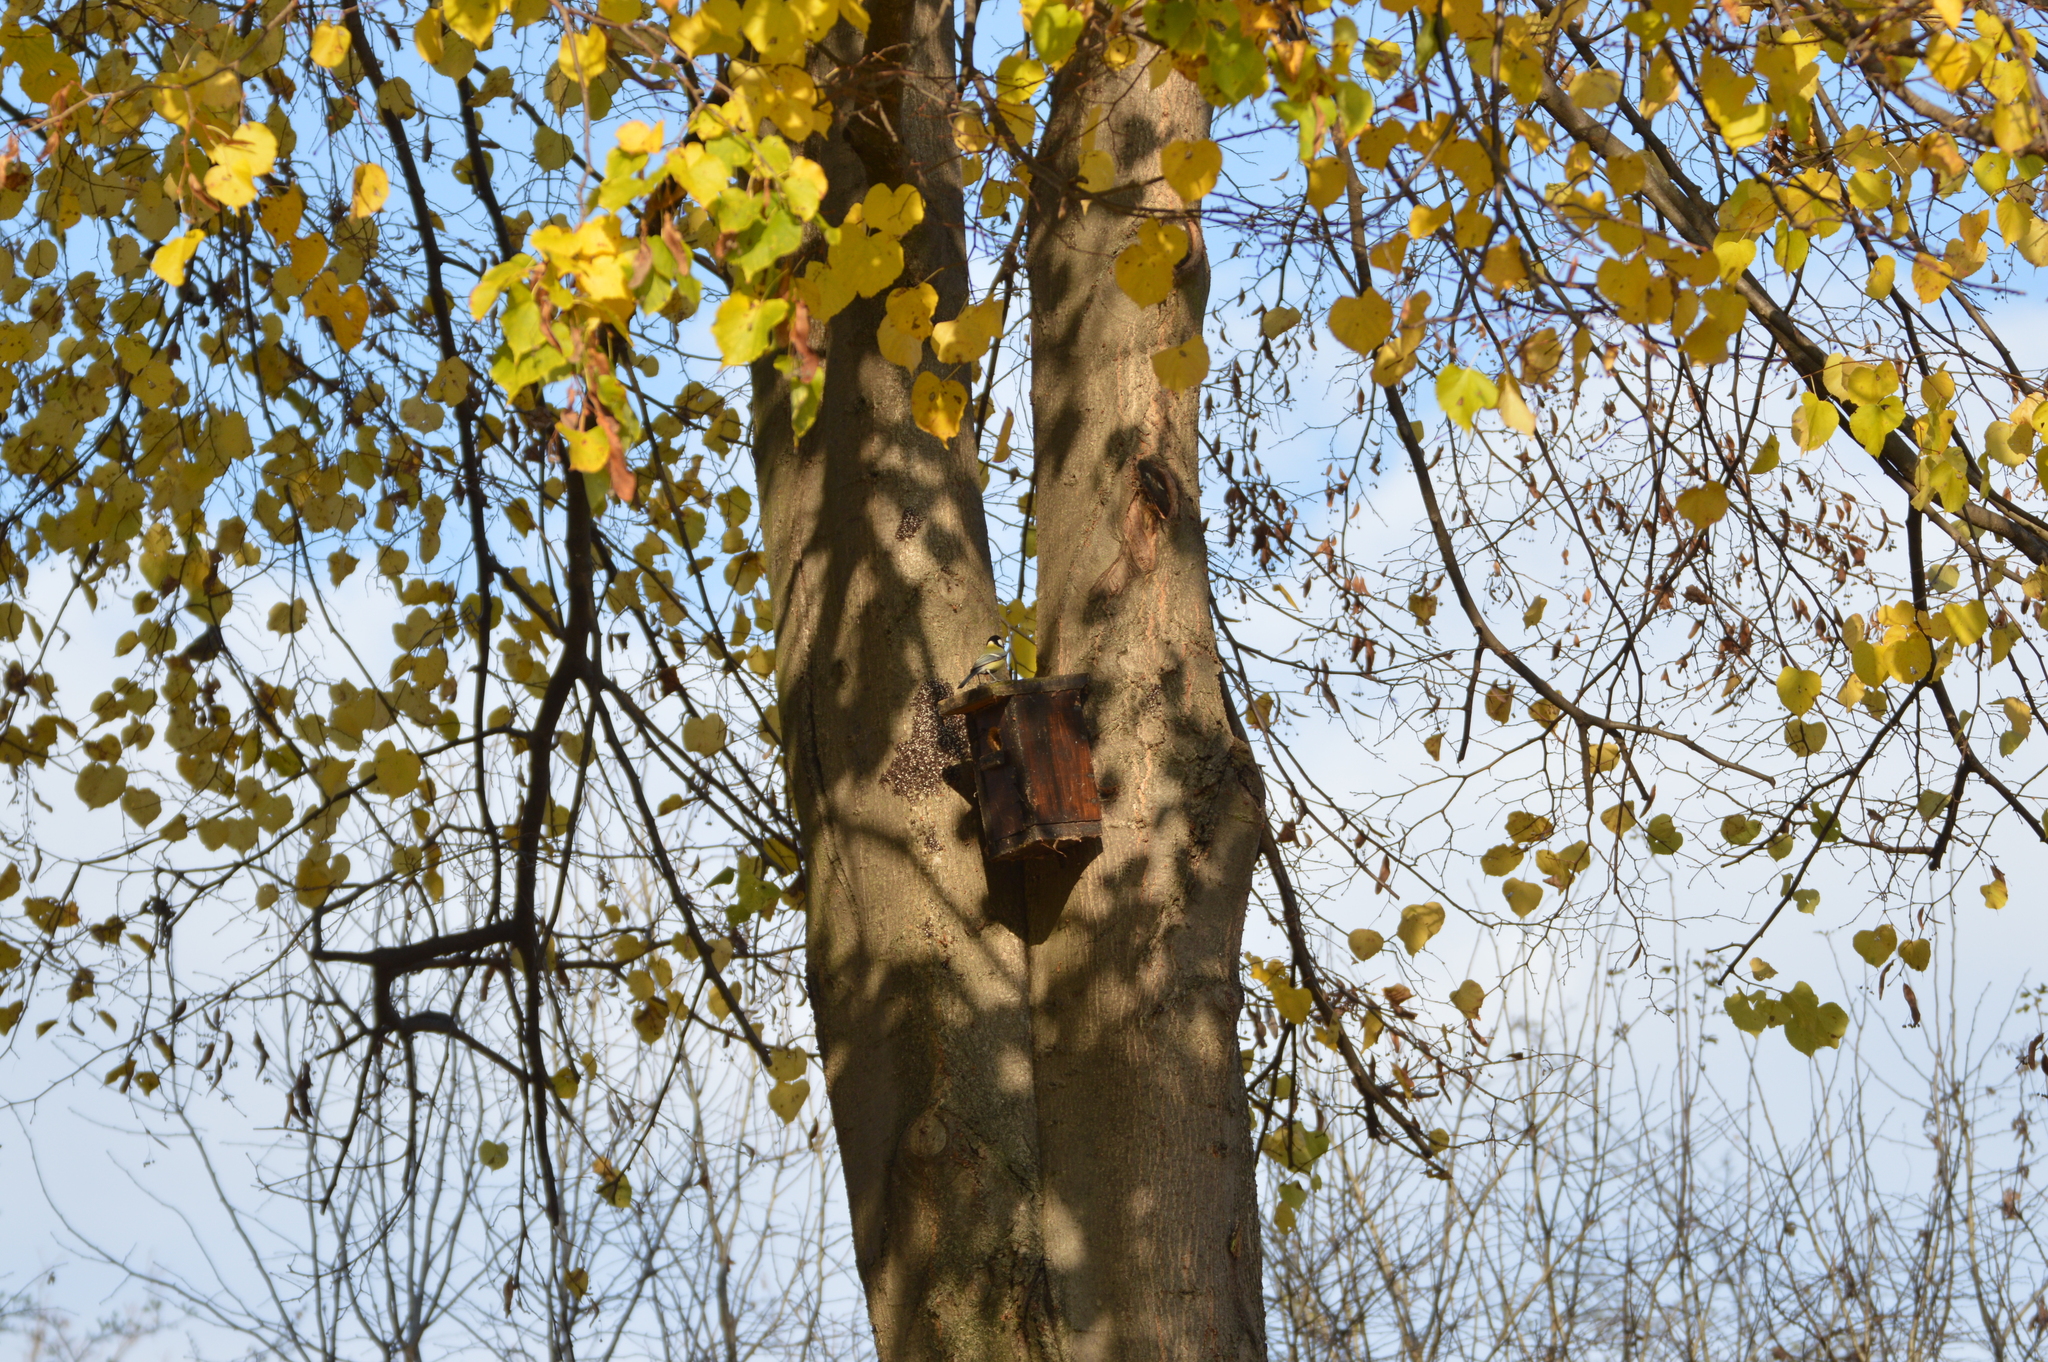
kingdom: Animalia
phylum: Chordata
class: Aves
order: Passeriformes
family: Paridae
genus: Parus
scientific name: Parus major
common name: Great tit
